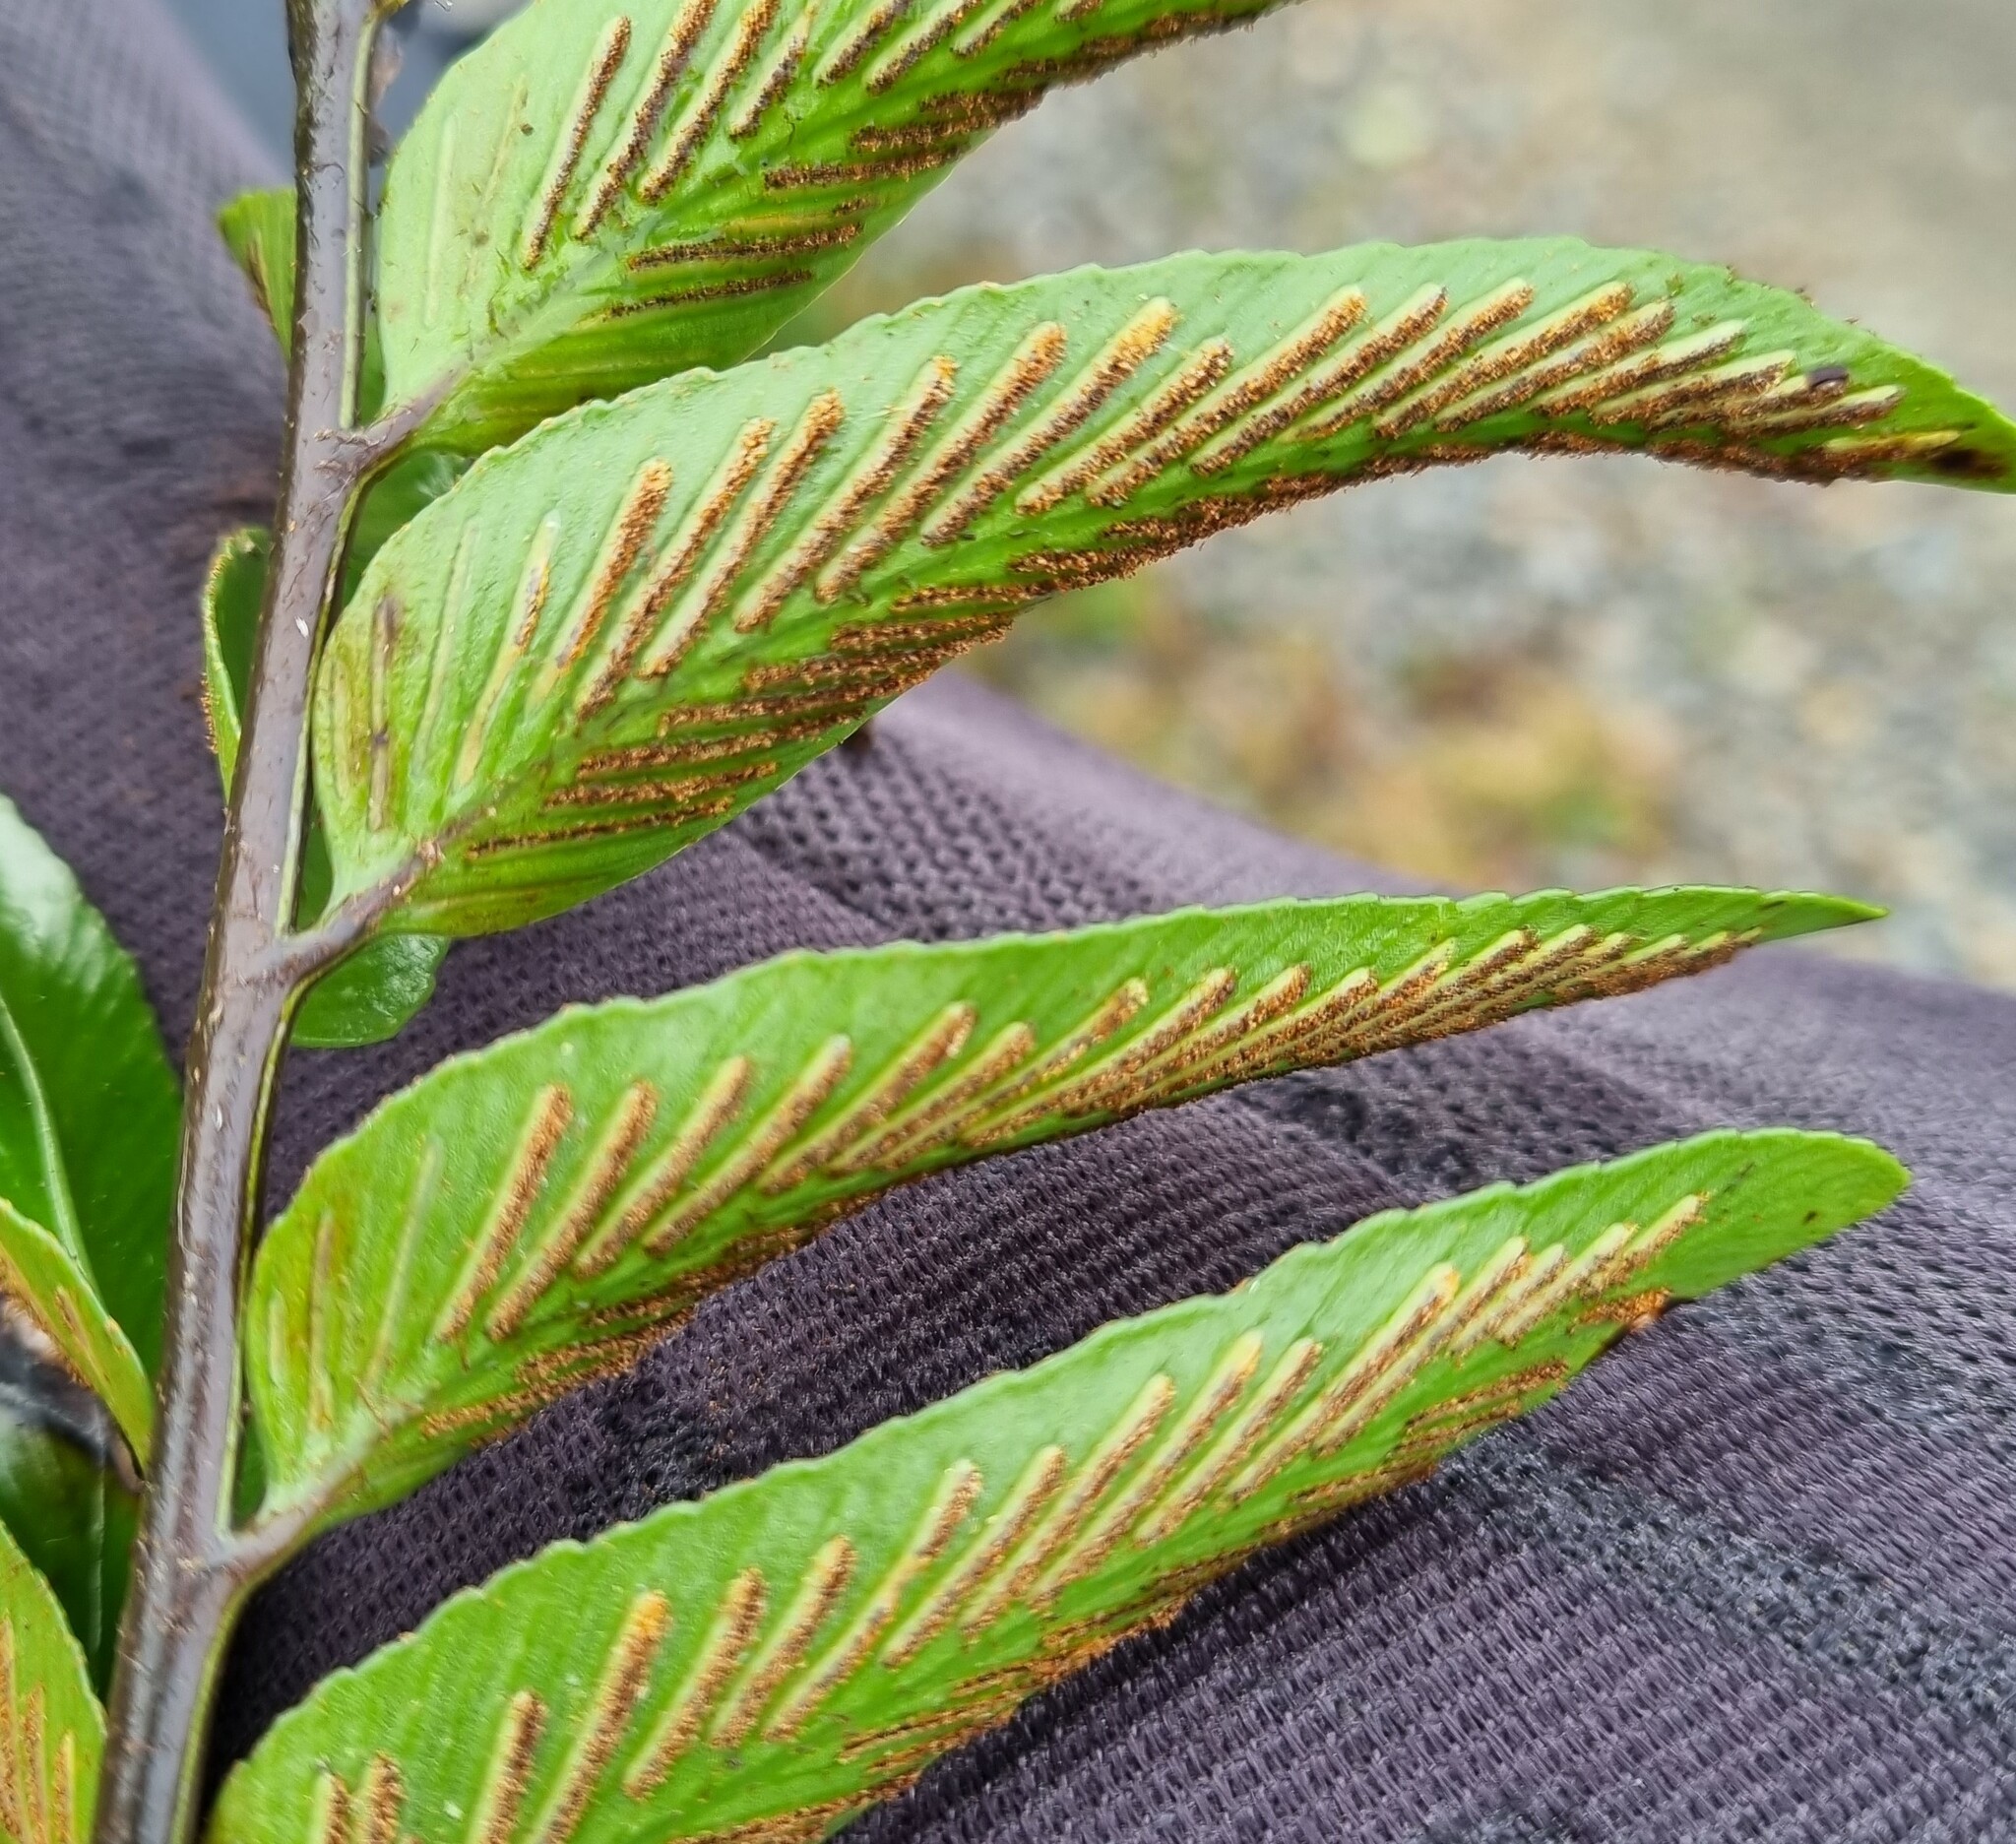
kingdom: Plantae
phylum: Tracheophyta
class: Polypodiopsida
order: Polypodiales
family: Aspleniaceae
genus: Asplenium
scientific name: Asplenium oblongifolium
